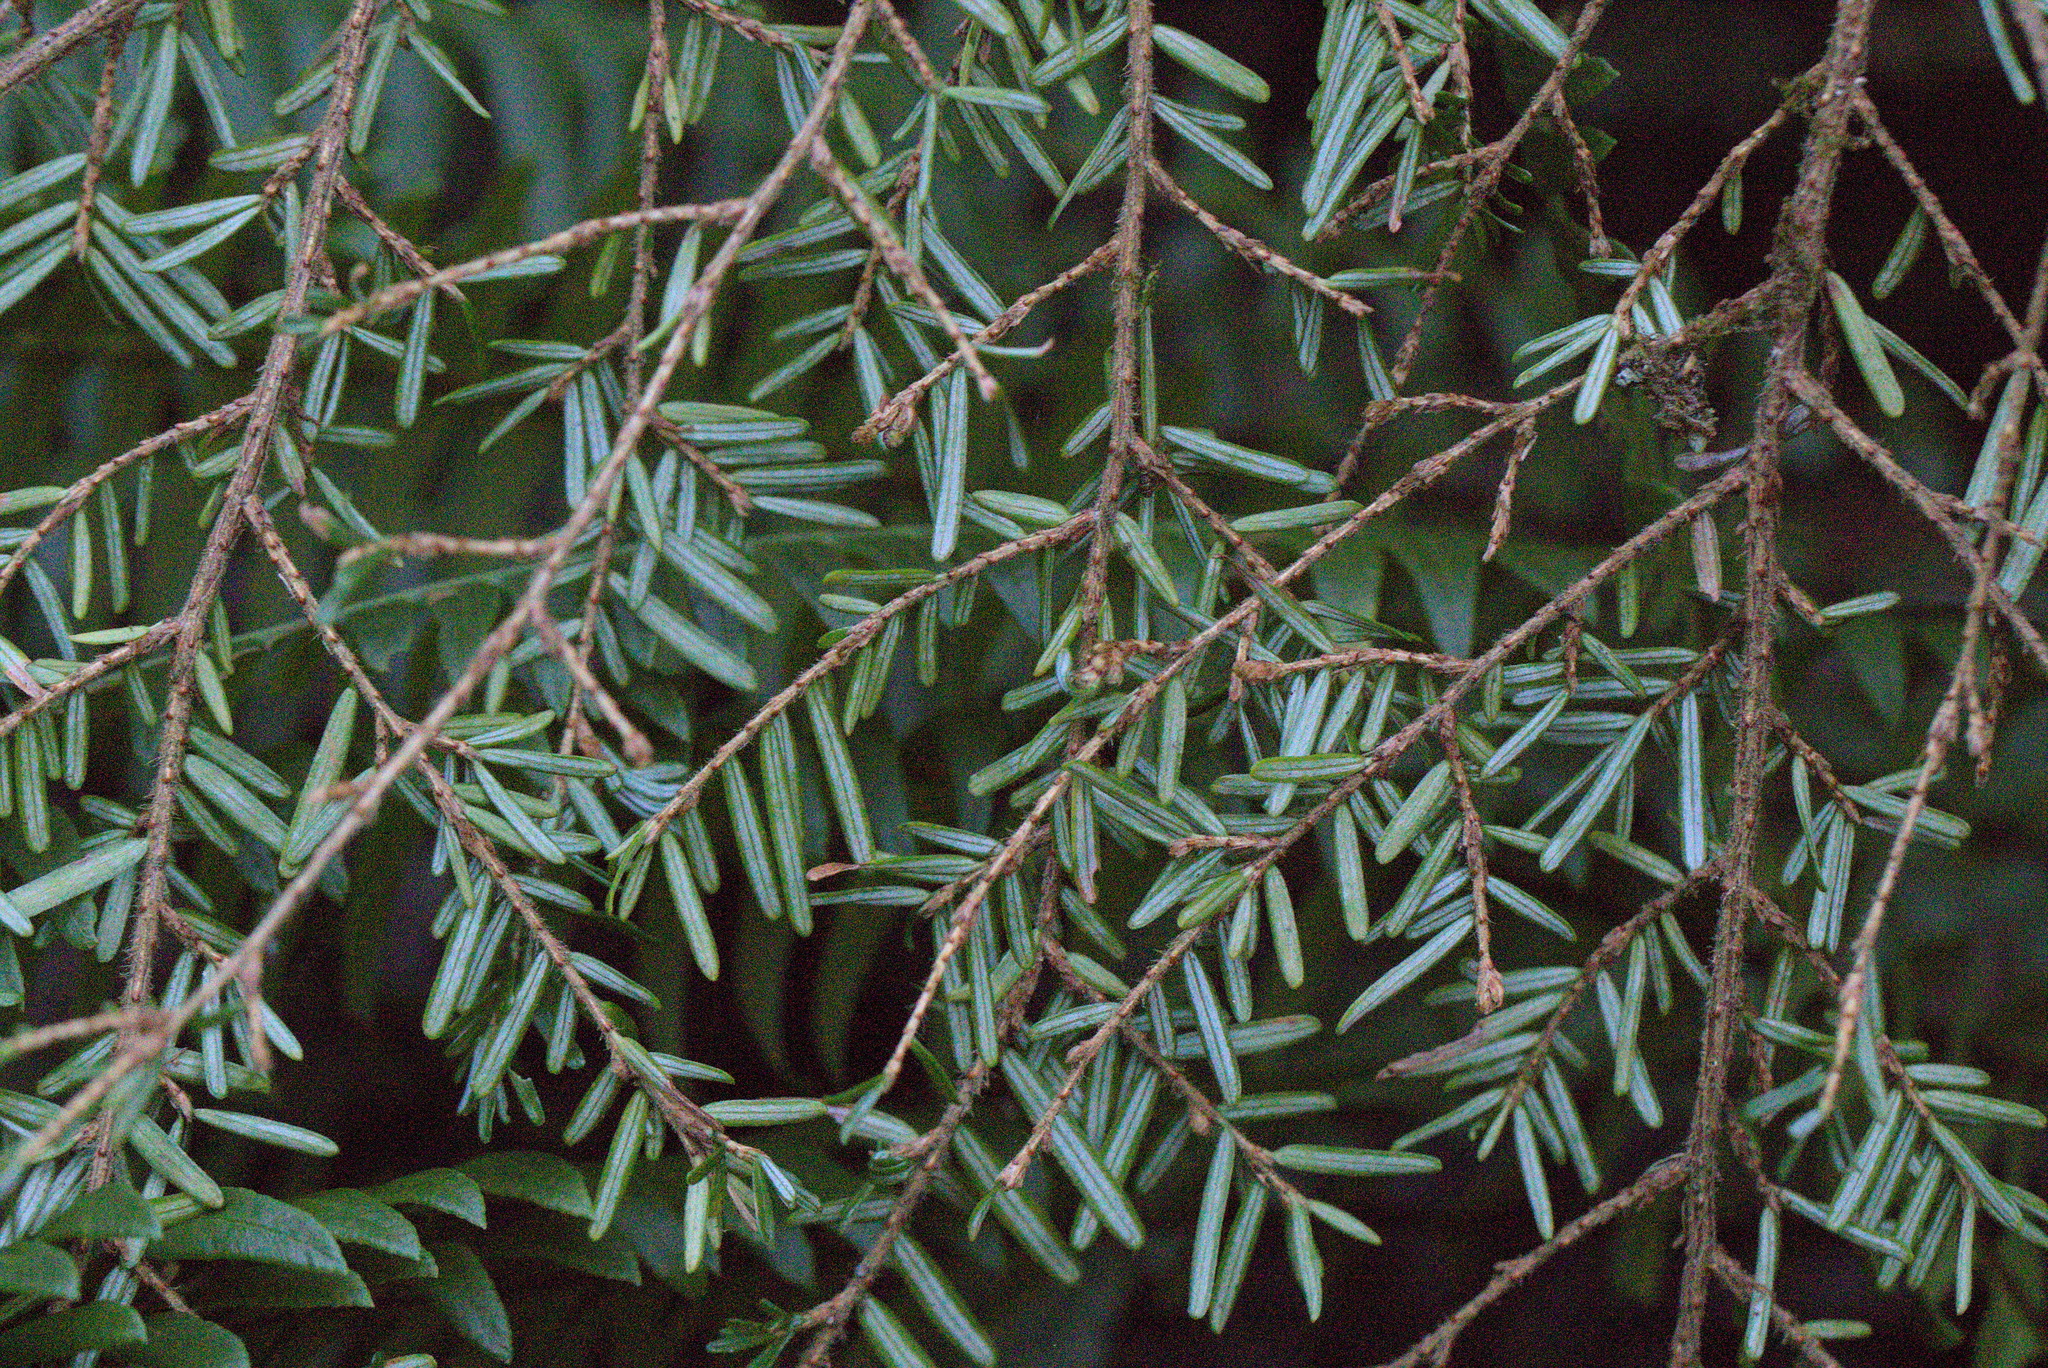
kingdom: Plantae
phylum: Tracheophyta
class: Pinopsida
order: Pinales
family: Pinaceae
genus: Tsuga
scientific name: Tsuga heterophylla
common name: Western hemlock
